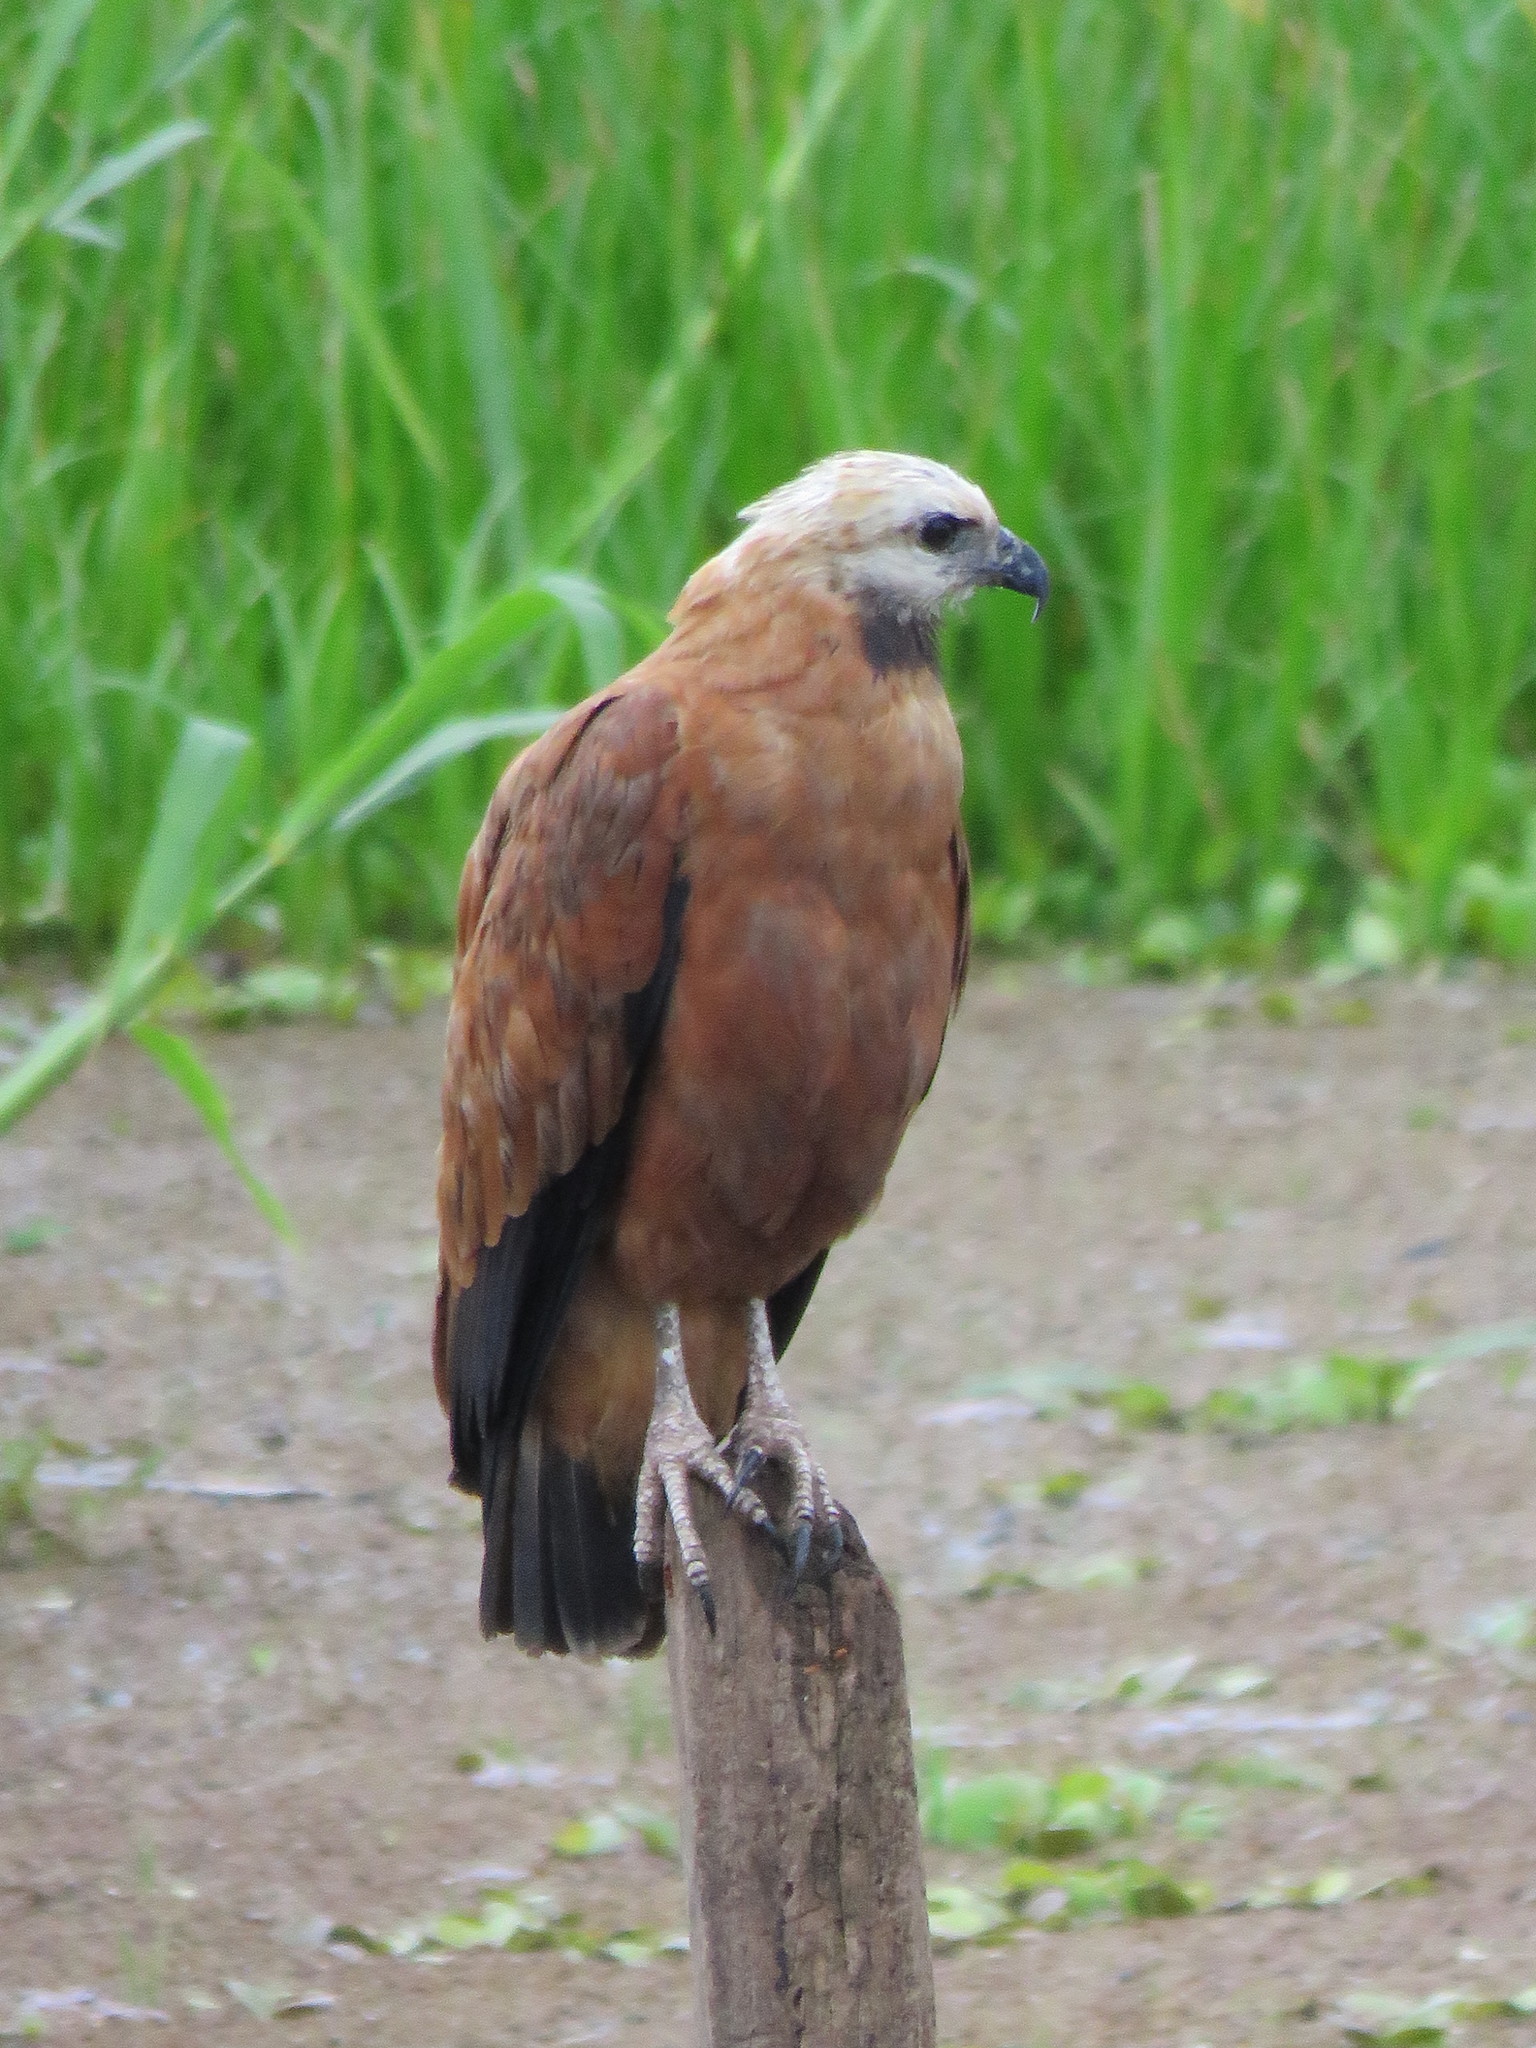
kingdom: Animalia
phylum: Chordata
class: Aves
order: Accipitriformes
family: Accipitridae
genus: Busarellus
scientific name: Busarellus nigricollis
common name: Black-collared hawk
